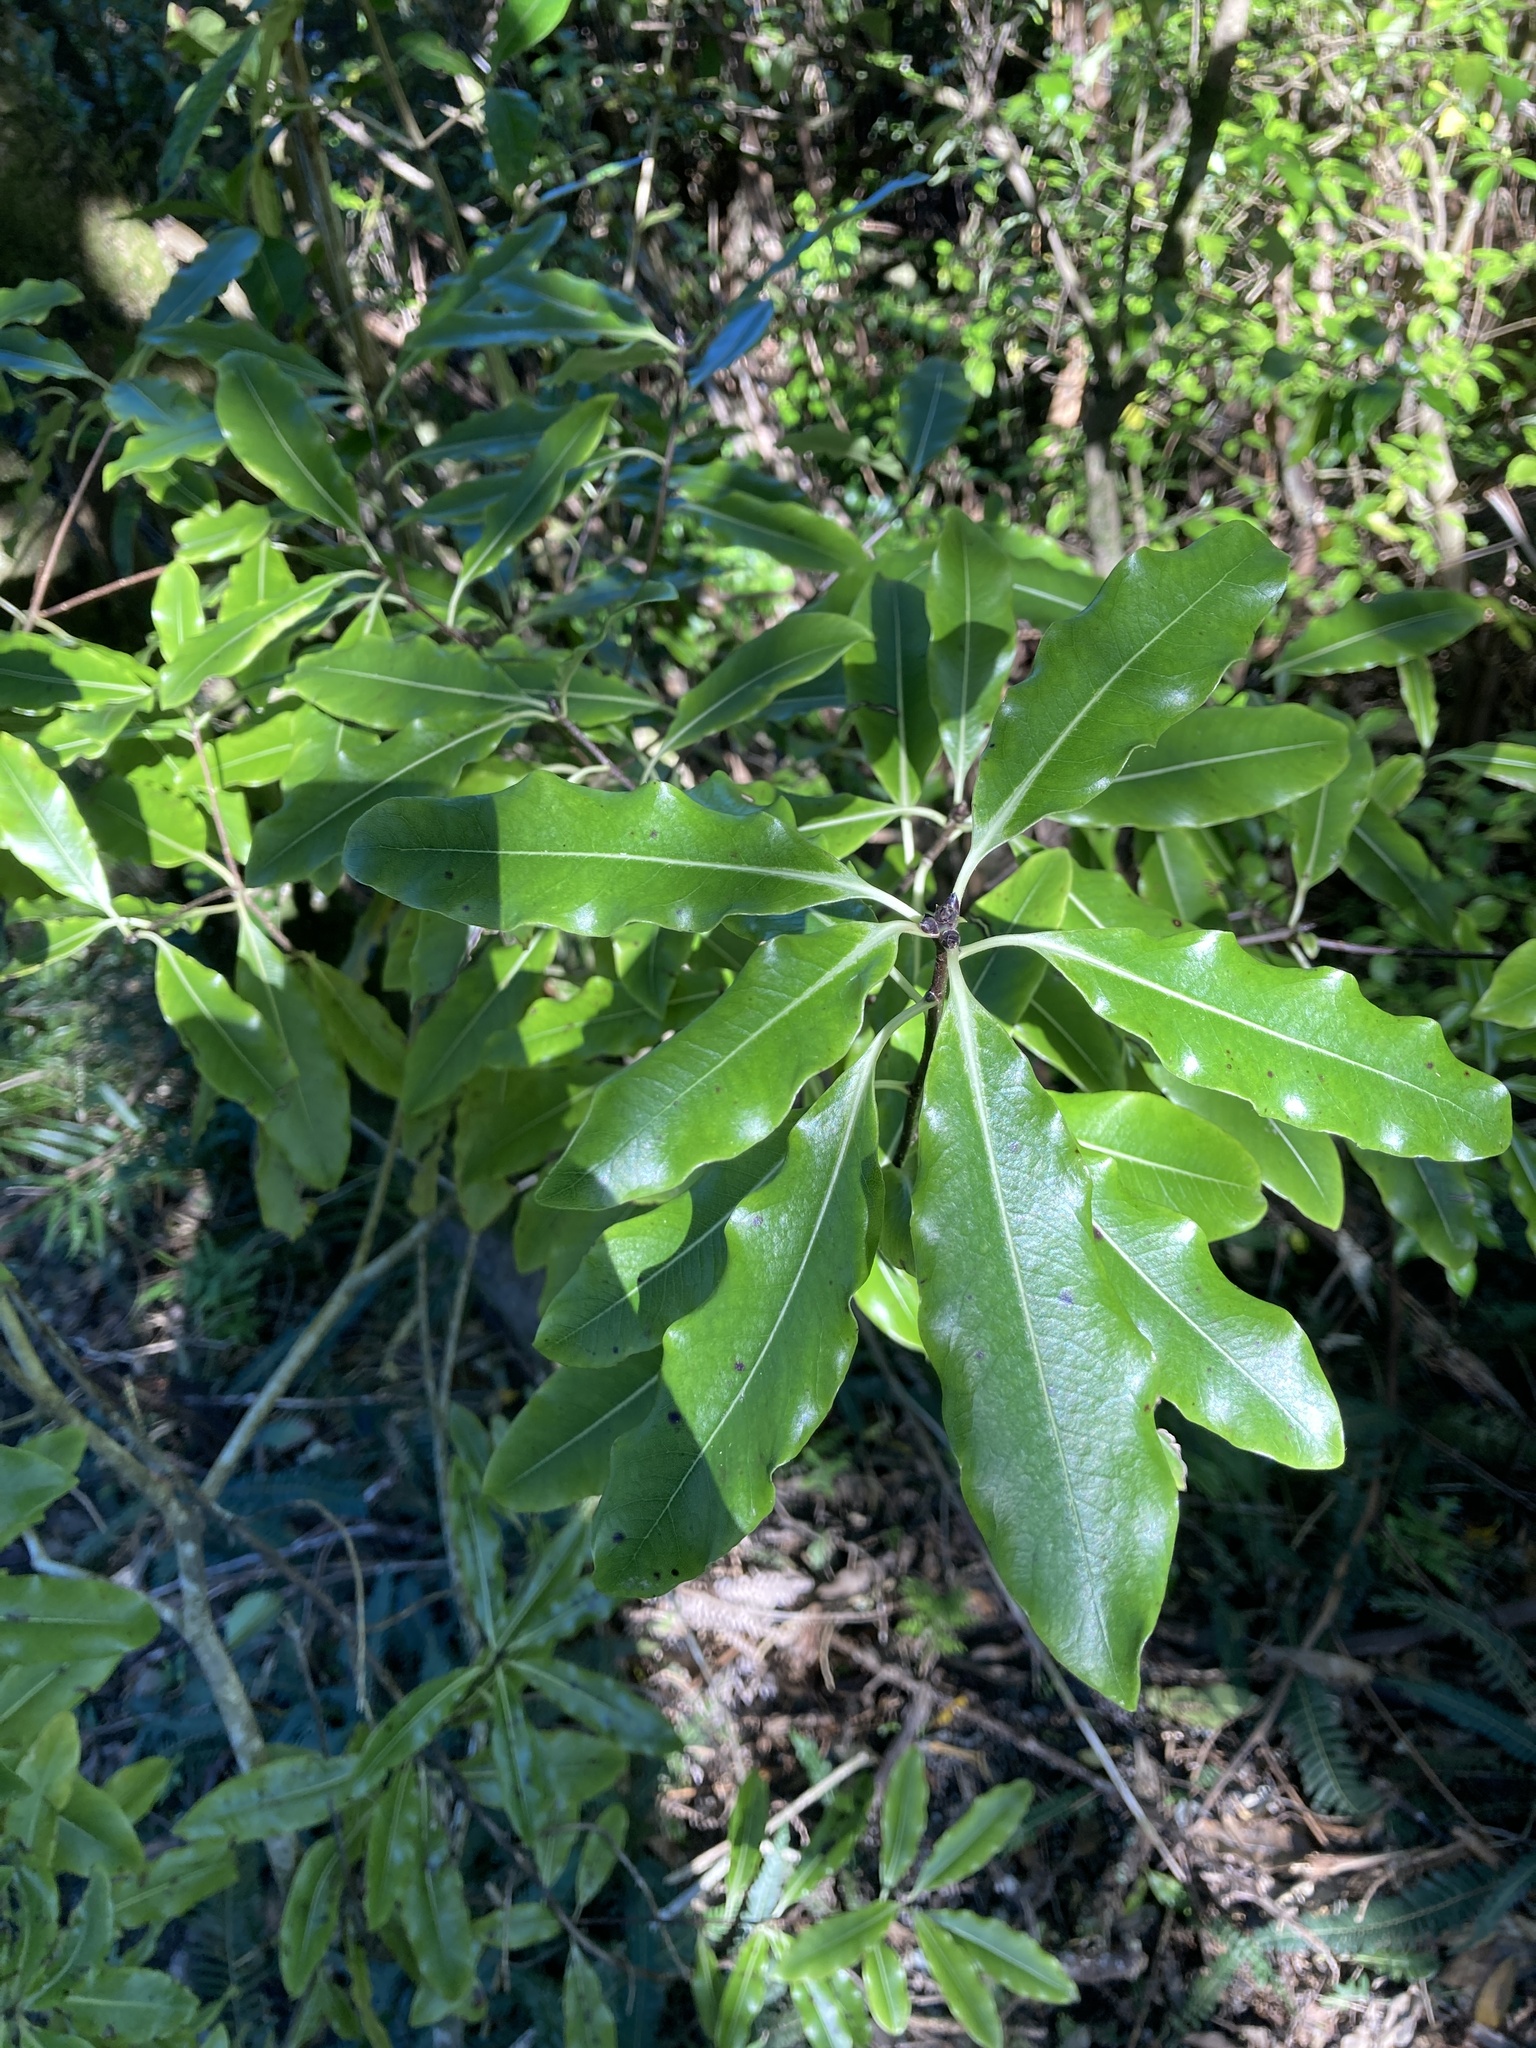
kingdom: Plantae
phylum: Tracheophyta
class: Magnoliopsida
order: Apiales
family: Pittosporaceae
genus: Pittosporum
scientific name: Pittosporum eugenioides
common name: Lemonwood
